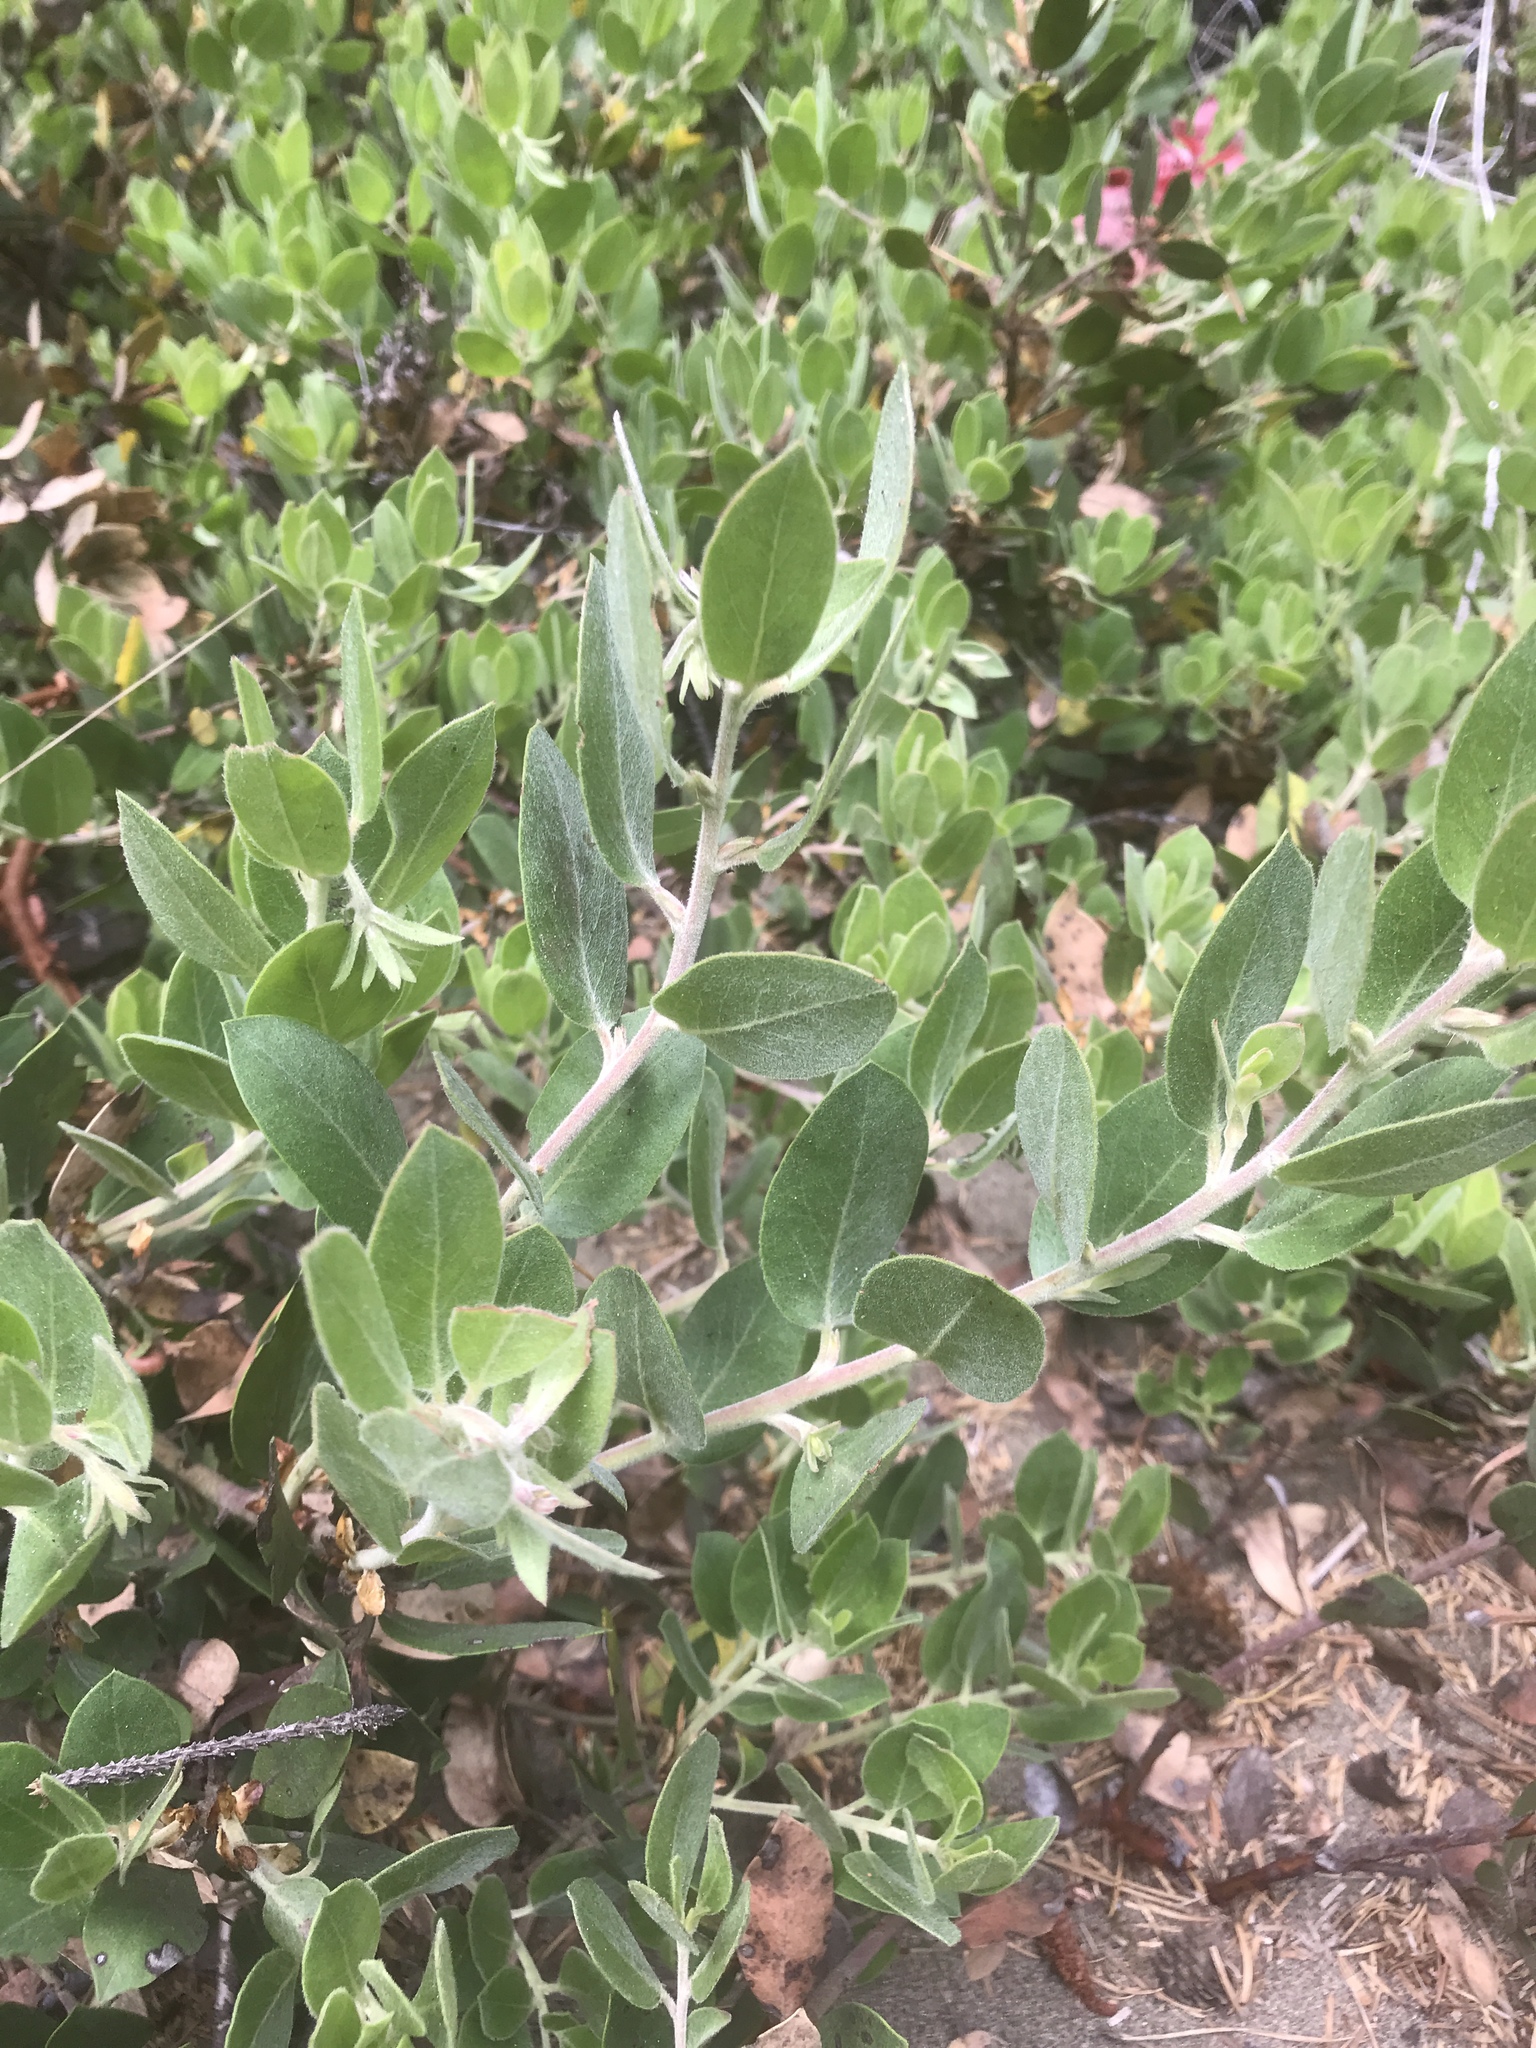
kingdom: Plantae
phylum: Tracheophyta
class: Magnoliopsida
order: Ericales
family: Ericaceae
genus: Arctostaphylos
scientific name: Arctostaphylos columbiana
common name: Bristly bearberry
